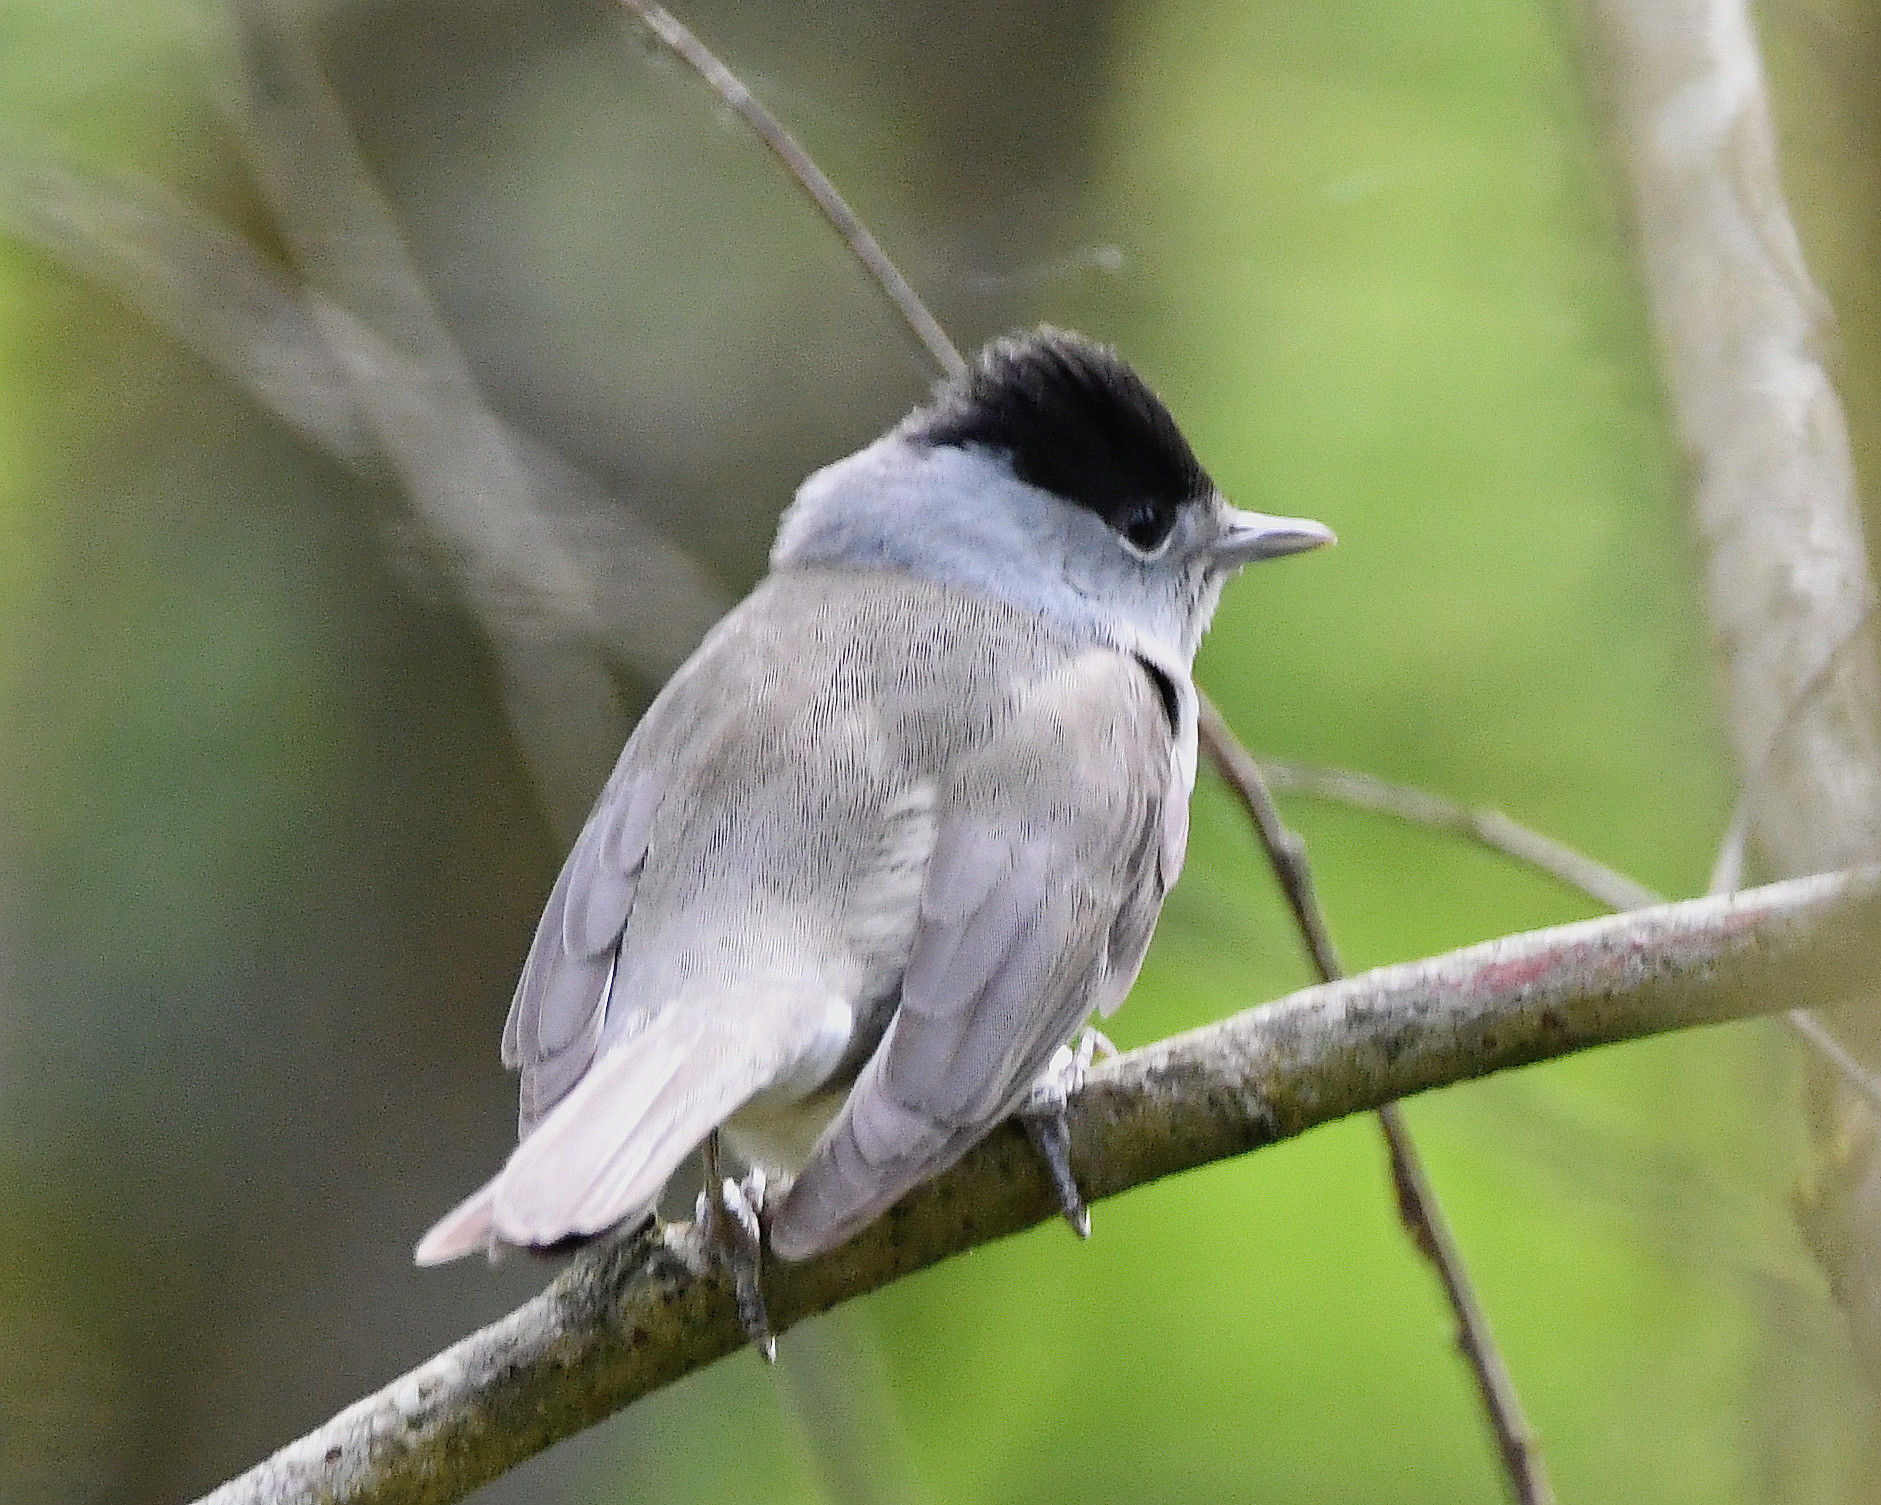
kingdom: Animalia
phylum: Chordata
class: Aves
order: Passeriformes
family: Sylviidae
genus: Sylvia
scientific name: Sylvia atricapilla
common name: Eurasian blackcap
